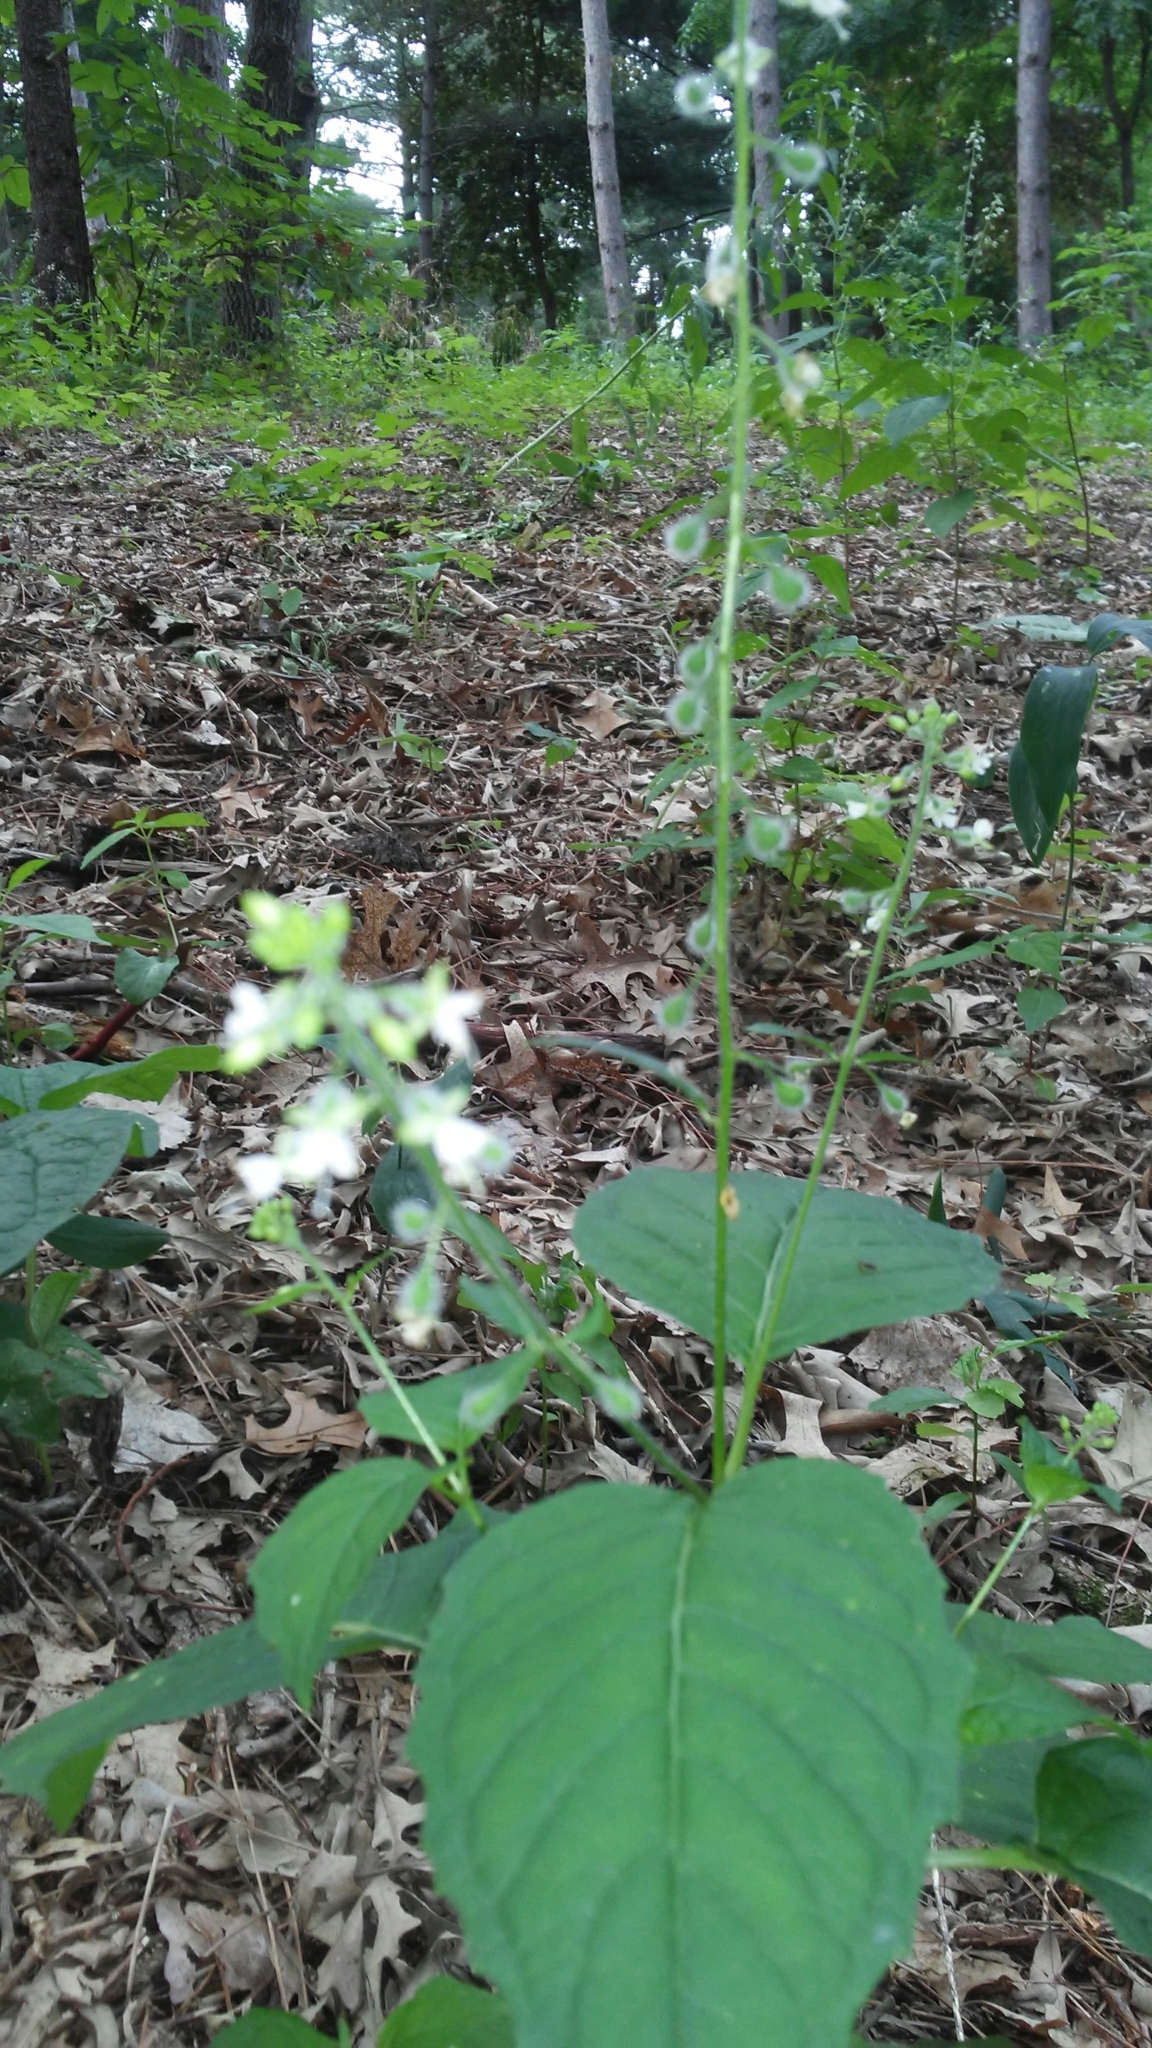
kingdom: Plantae
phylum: Tracheophyta
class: Magnoliopsida
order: Myrtales
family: Onagraceae
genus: Circaea
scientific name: Circaea canadensis
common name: Broad-leaved enchanter's nightshade
